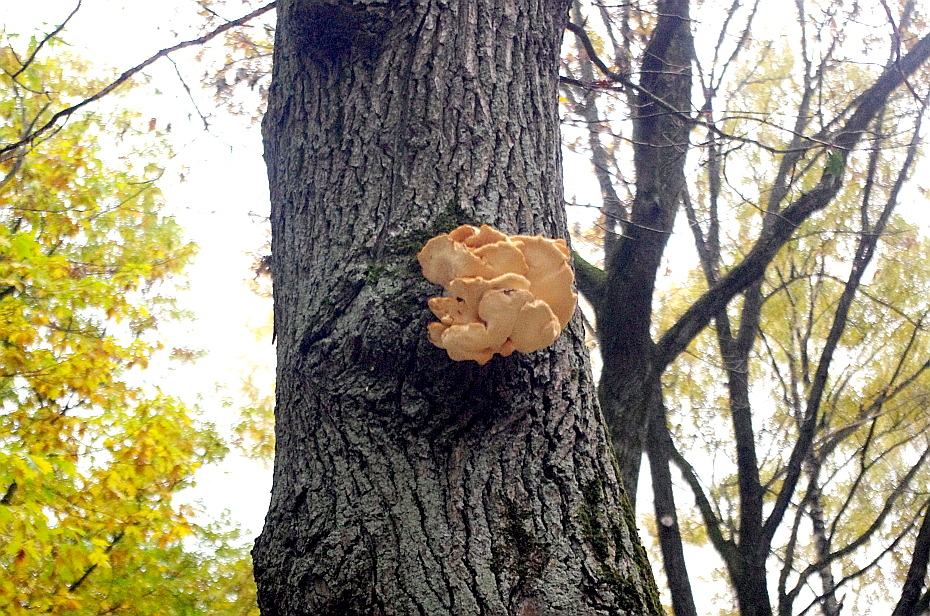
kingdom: Fungi
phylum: Basidiomycota
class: Agaricomycetes
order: Polyporales
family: Laetiporaceae
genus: Laetiporus
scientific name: Laetiporus sulphureus
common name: Chicken of the woods
